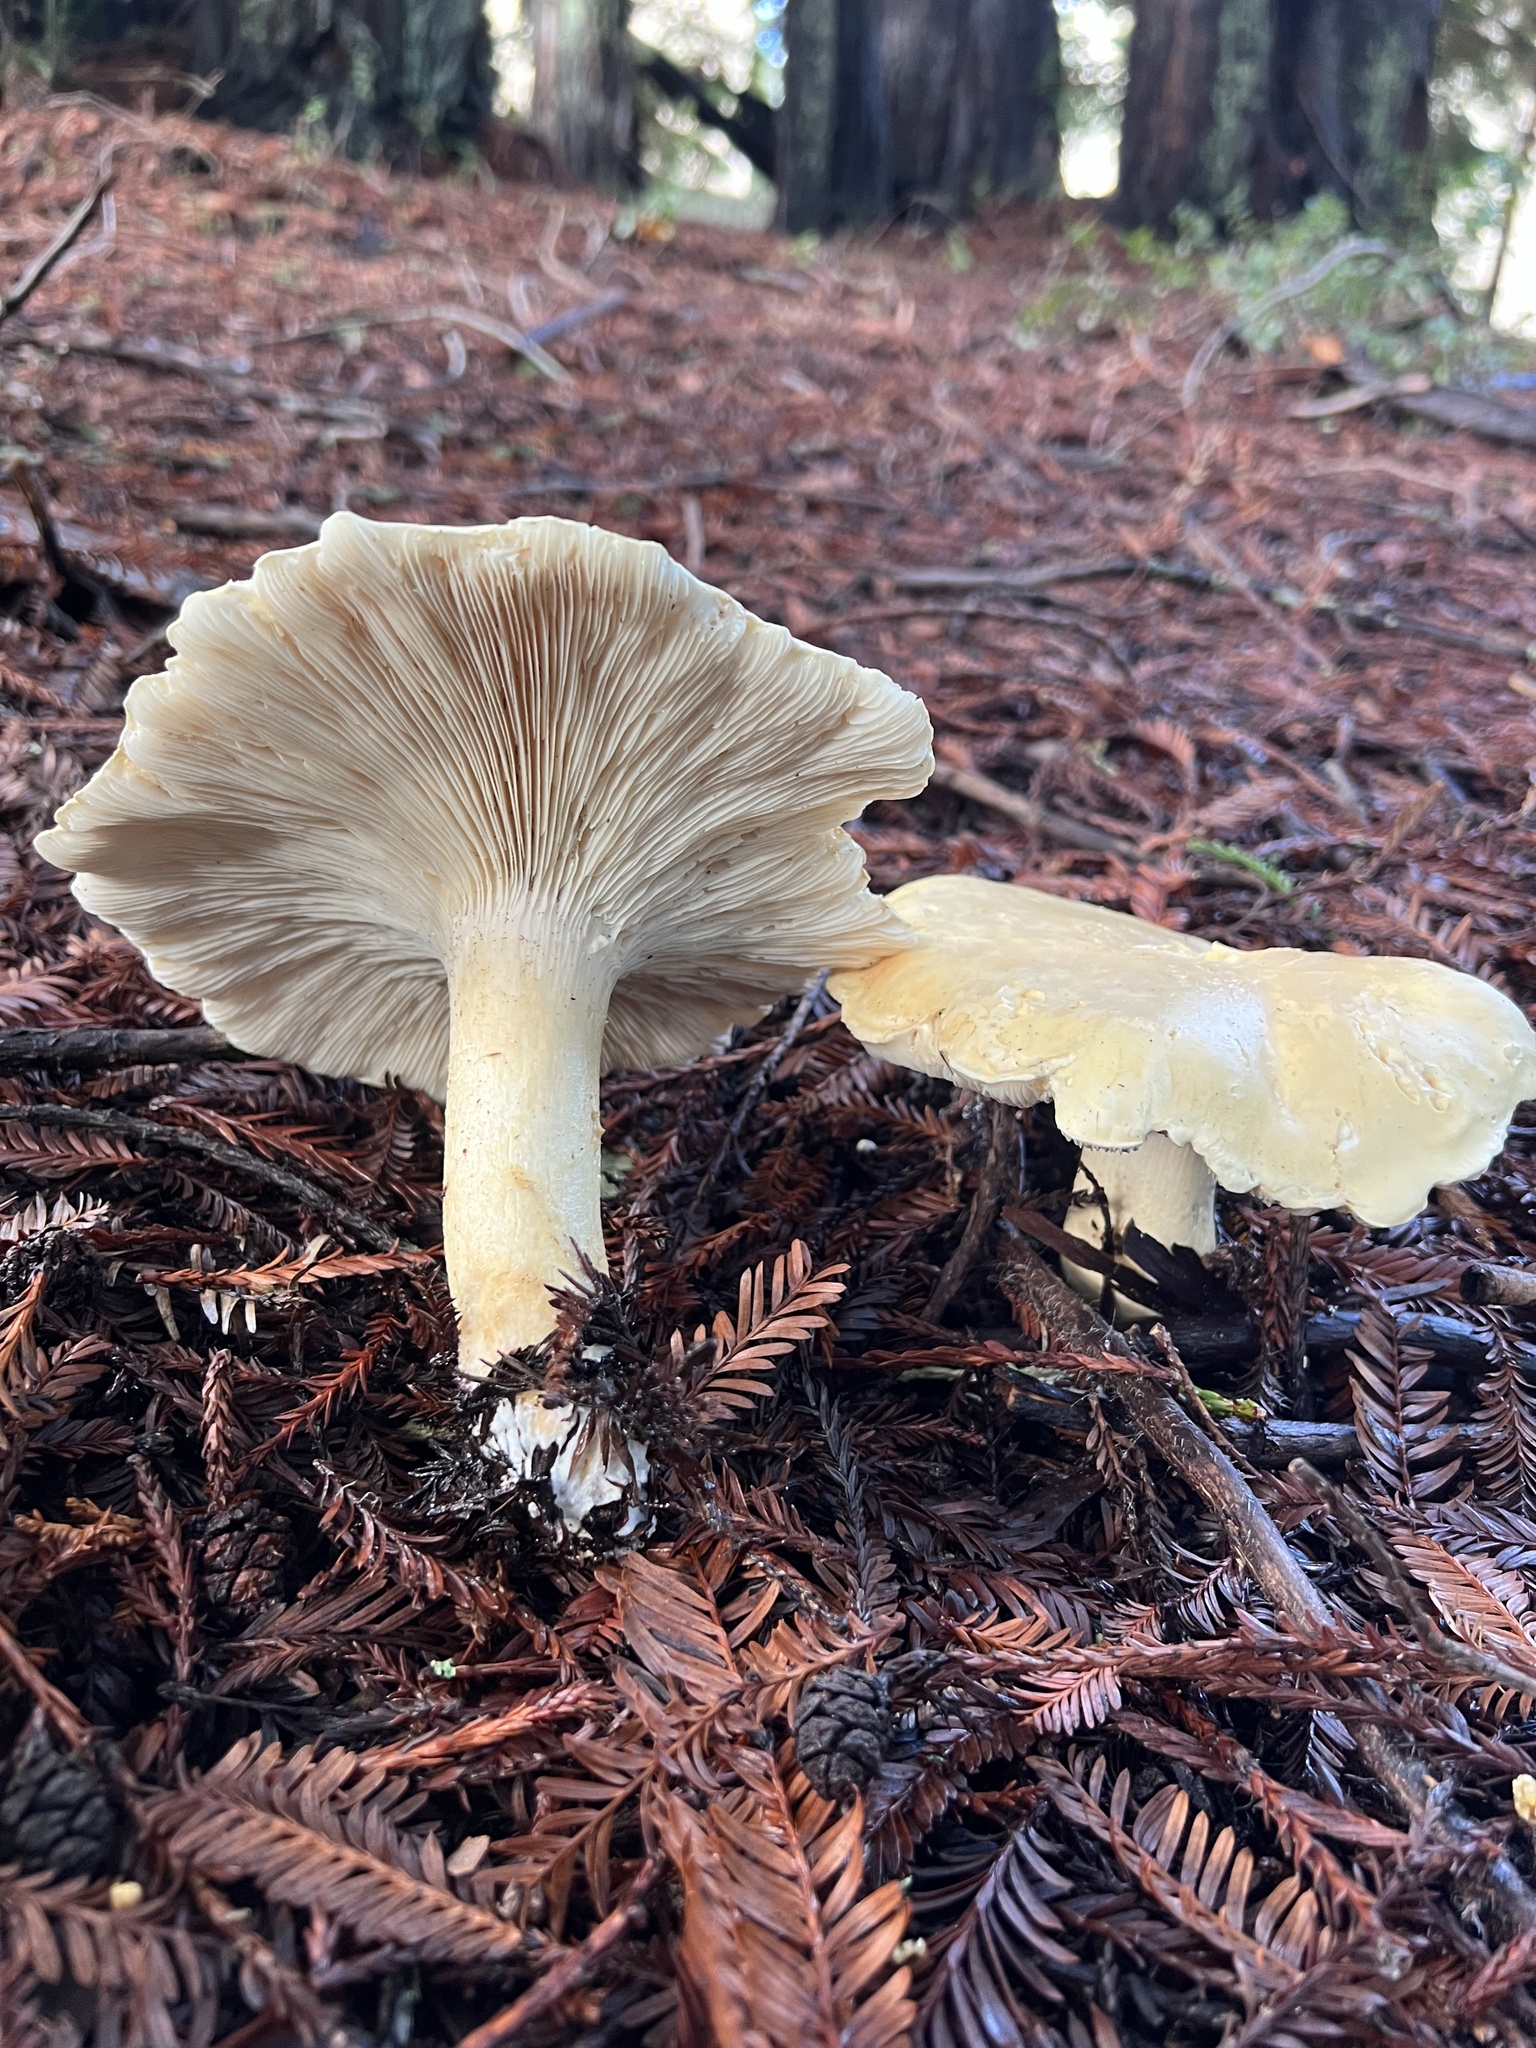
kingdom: Fungi
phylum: Basidiomycota
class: Agaricomycetes
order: Agaricales
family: Tricholomataceae
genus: Leucopaxillus
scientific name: Leucopaxillus albissimus
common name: Large white leucopax
